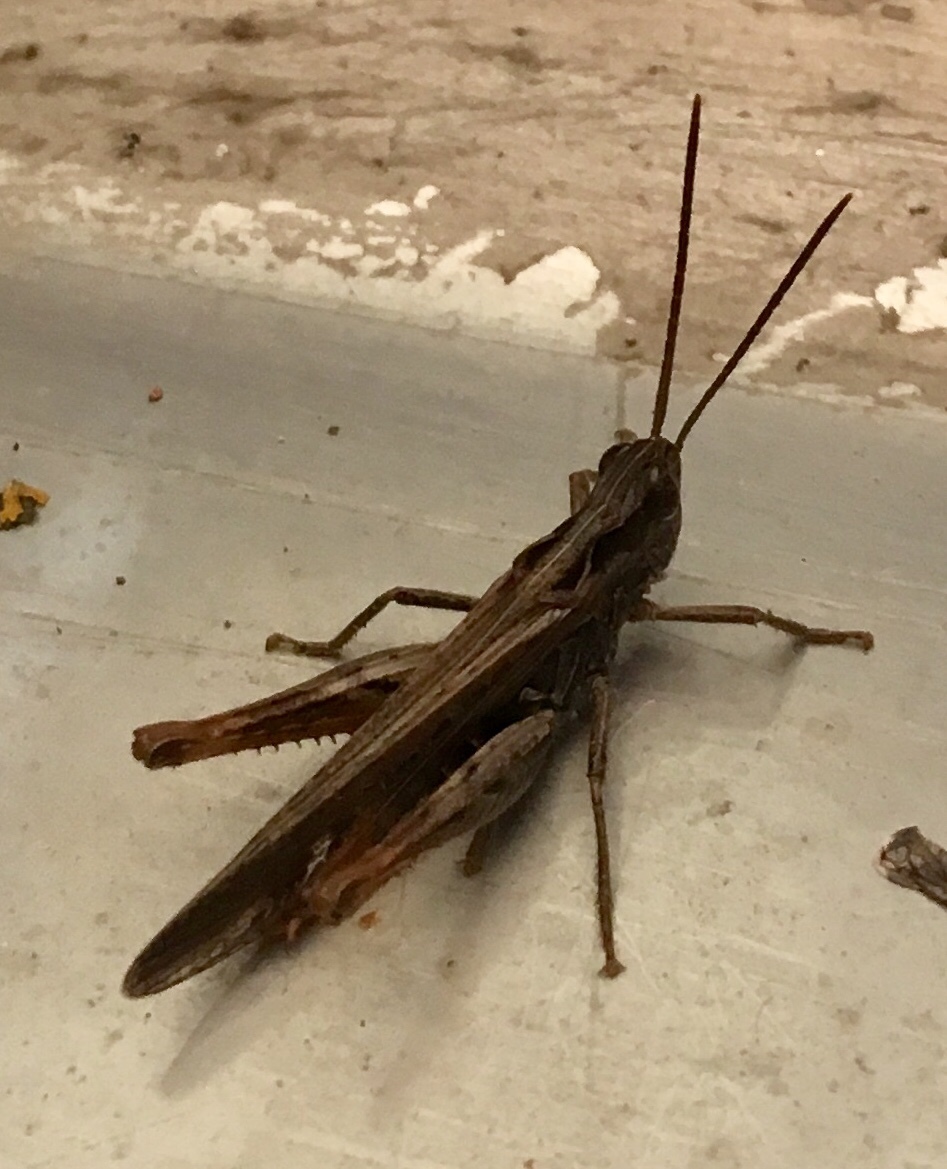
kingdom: Animalia
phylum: Arthropoda
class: Insecta
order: Orthoptera
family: Acrididae
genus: Chorthippus
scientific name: Chorthippus brunneus
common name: Field grasshopper
